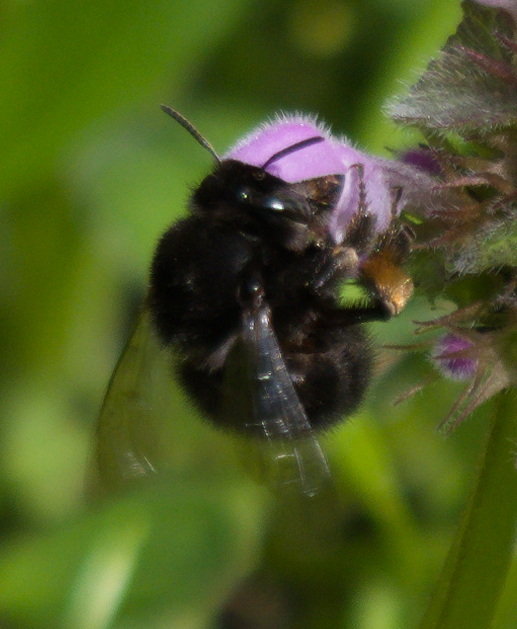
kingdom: Animalia
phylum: Arthropoda
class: Insecta
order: Hymenoptera
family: Apidae
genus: Anthophora
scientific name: Anthophora plumipes
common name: Hairy-footed flower bee
